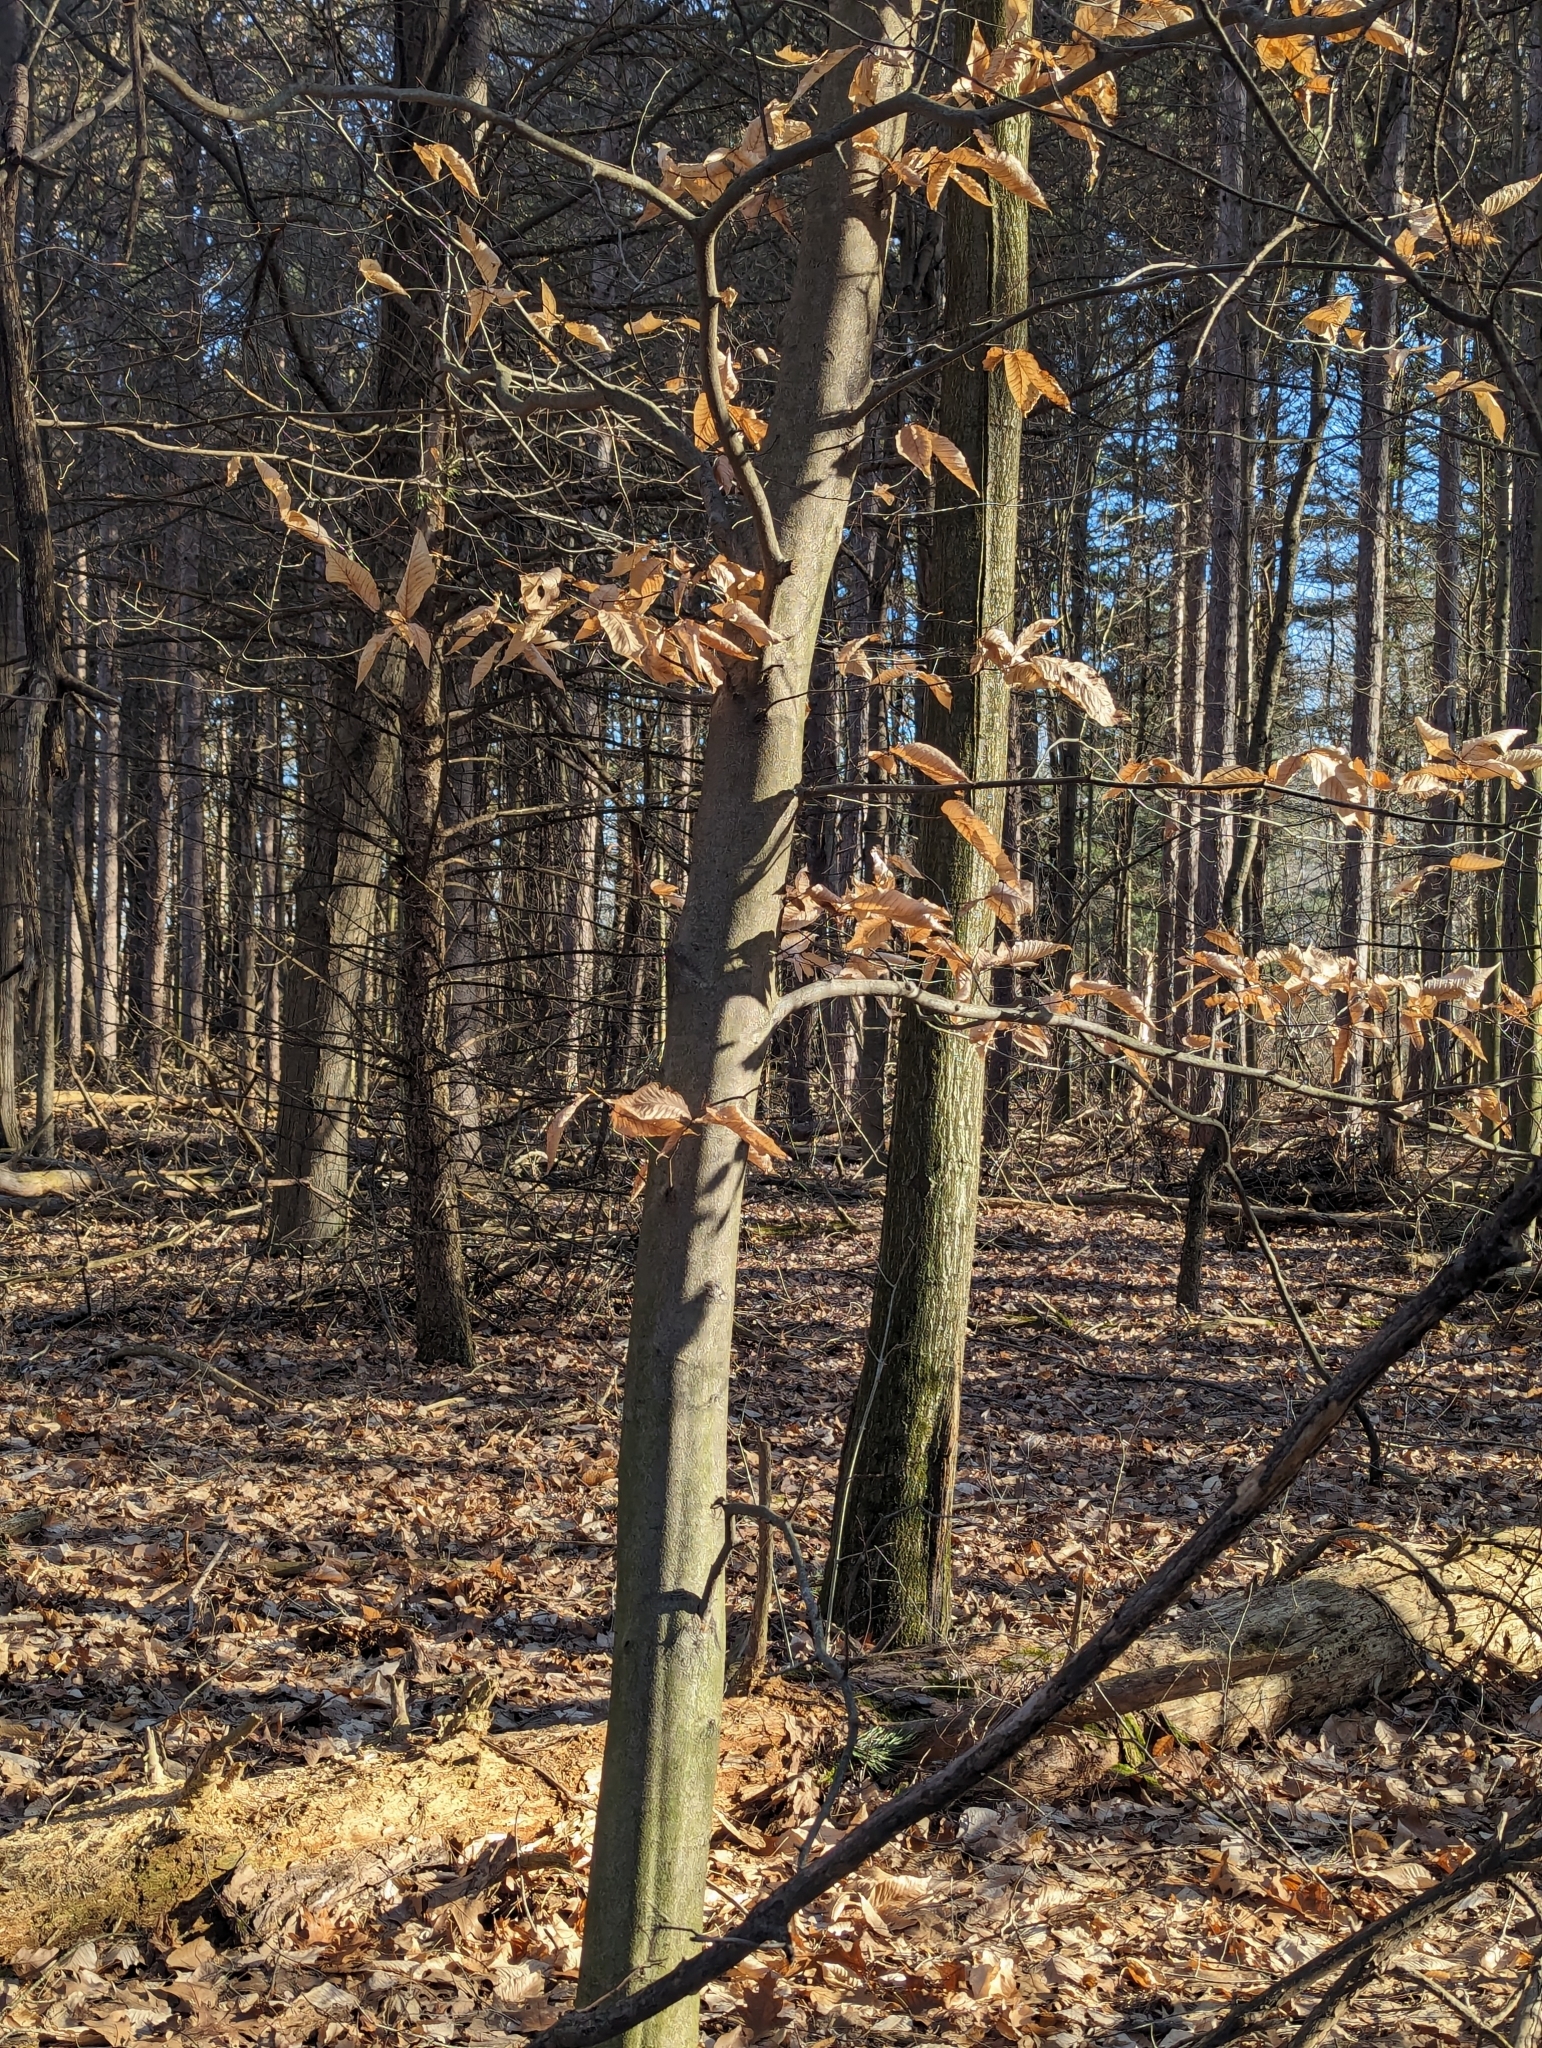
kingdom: Plantae
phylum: Tracheophyta
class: Magnoliopsida
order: Fagales
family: Fagaceae
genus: Fagus
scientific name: Fagus grandifolia
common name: American beech
